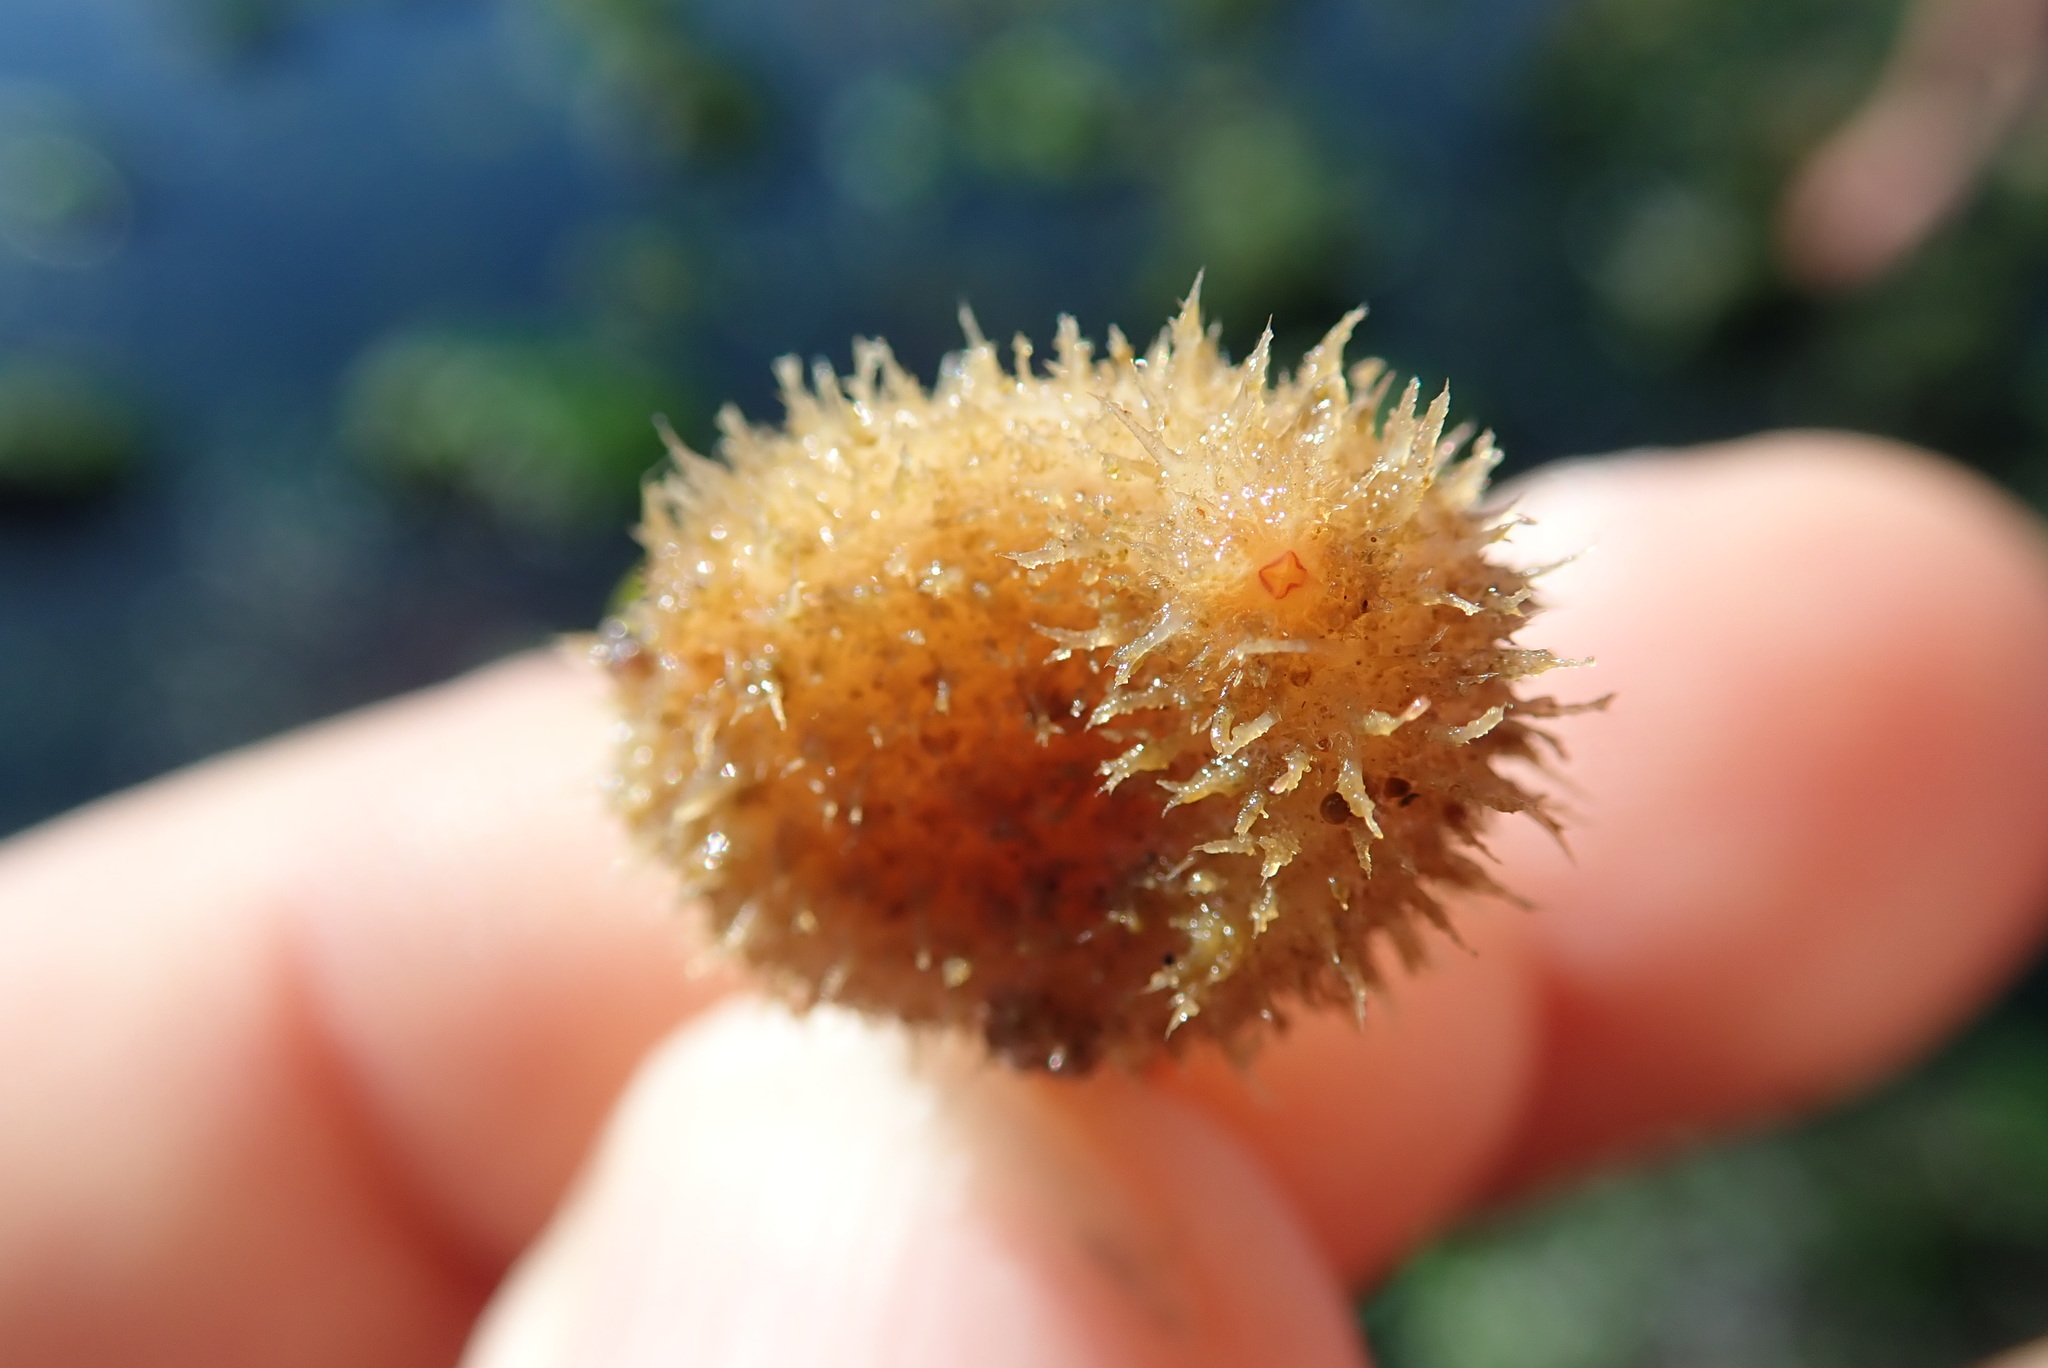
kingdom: Animalia
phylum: Chordata
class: Ascidiacea
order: Stolidobranchia
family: Pyuridae
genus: Boltenia
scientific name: Boltenia villosa
